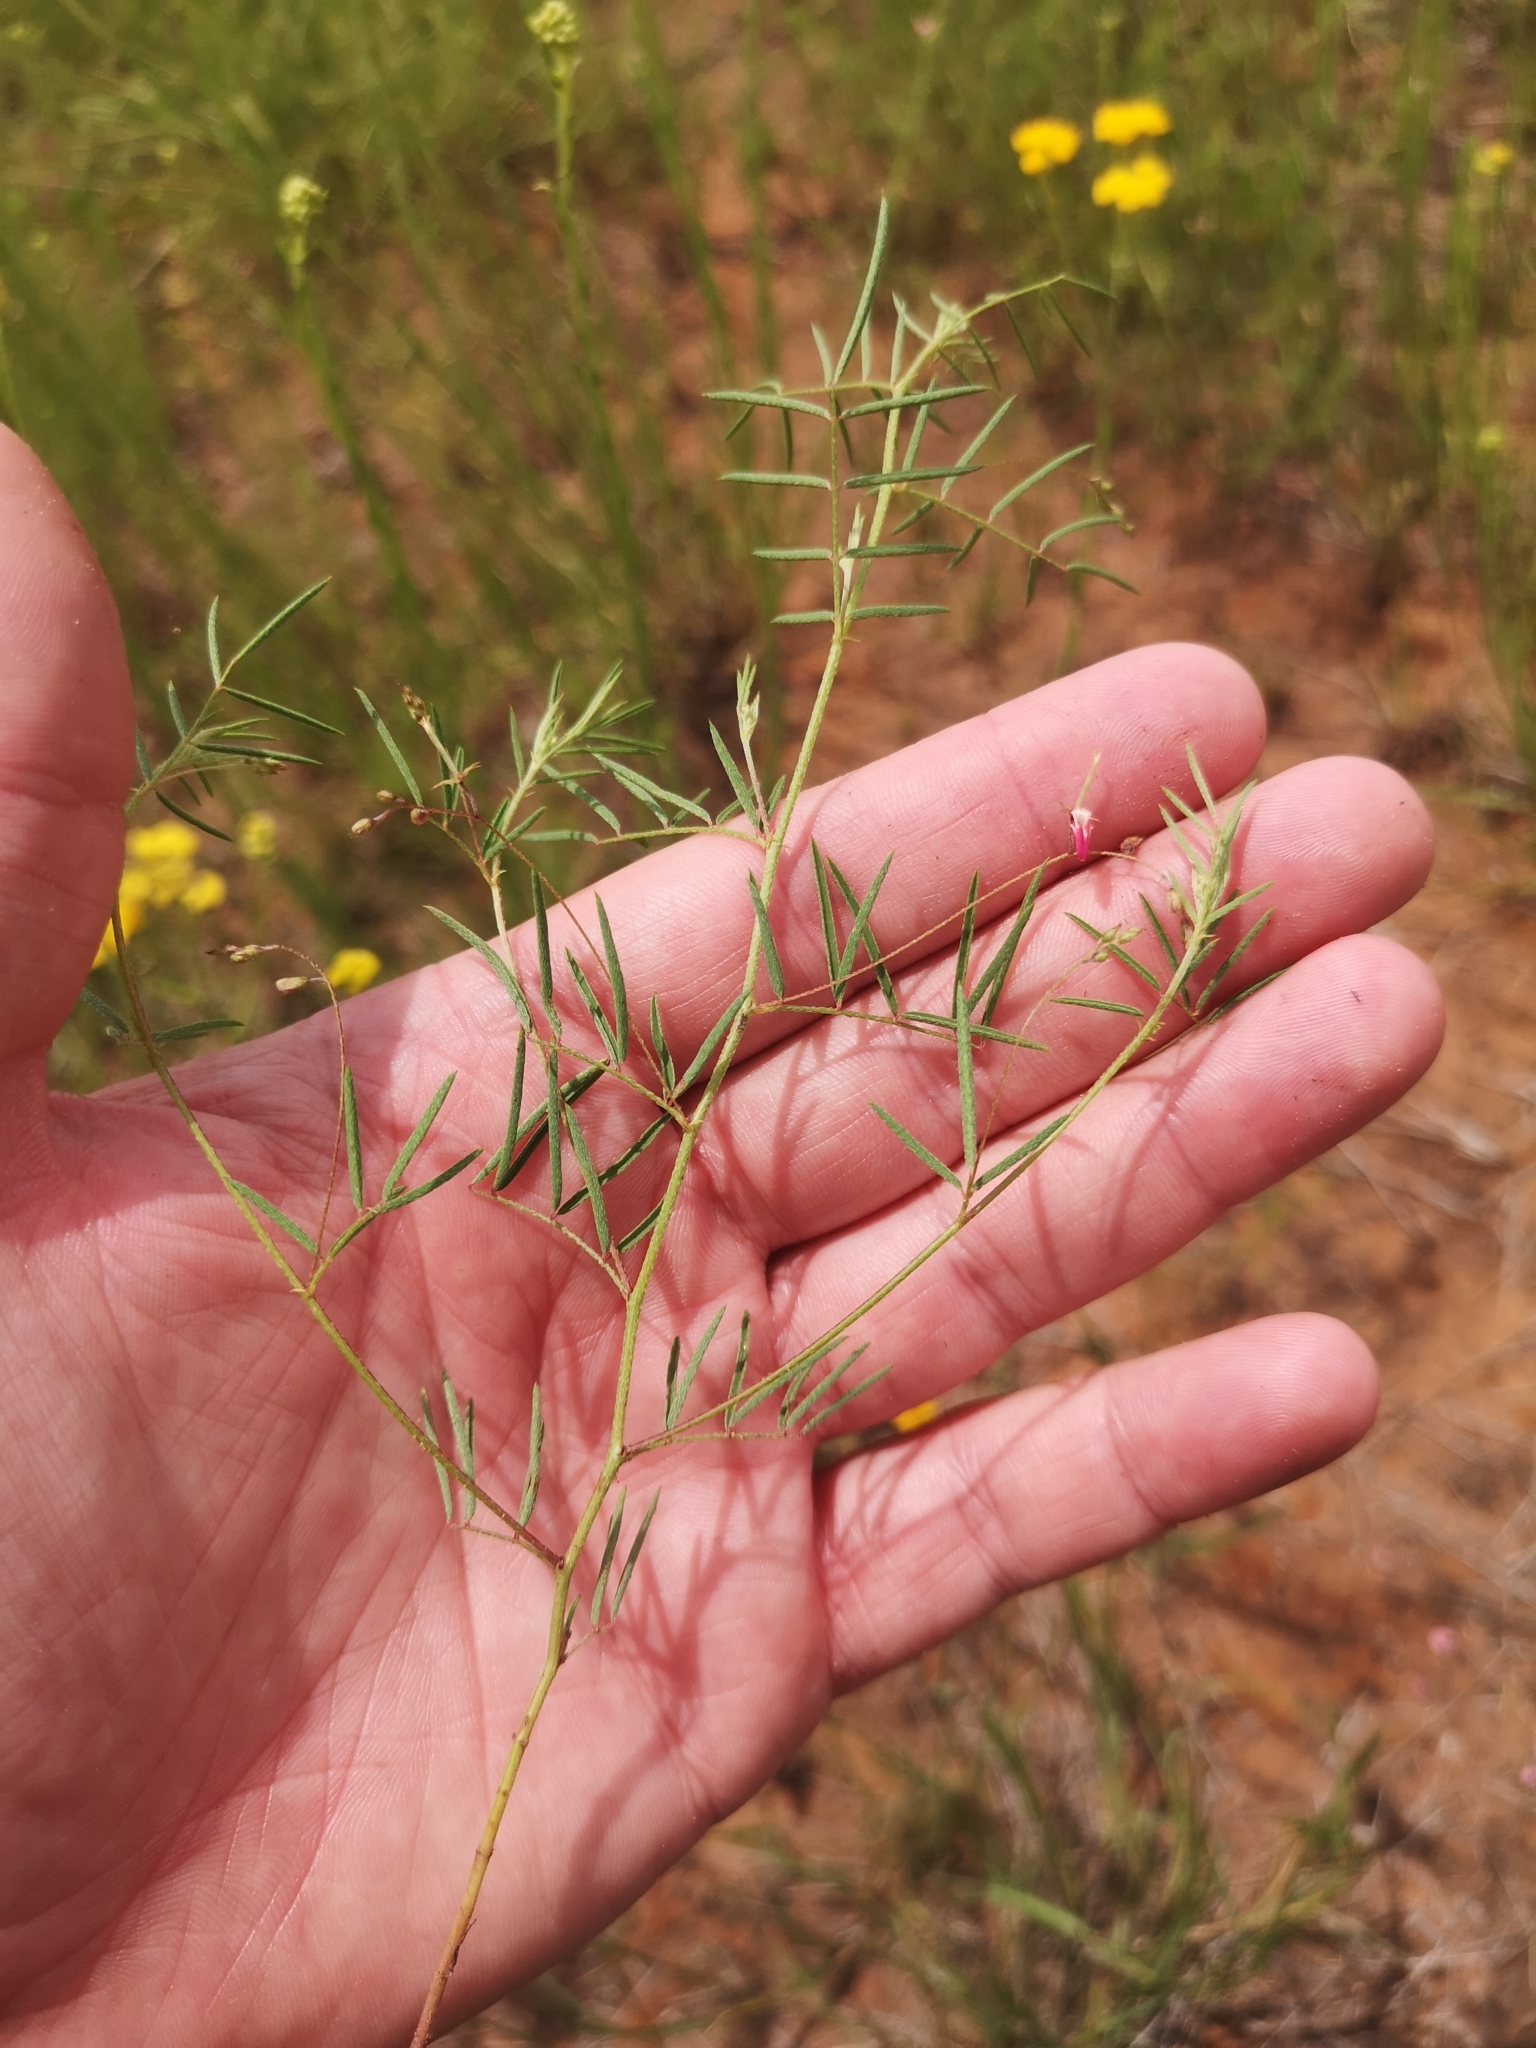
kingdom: Plantae
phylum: Tracheophyta
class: Magnoliopsida
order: Fabales
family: Fabaceae
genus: Indigofera
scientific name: Indigofera filipes
